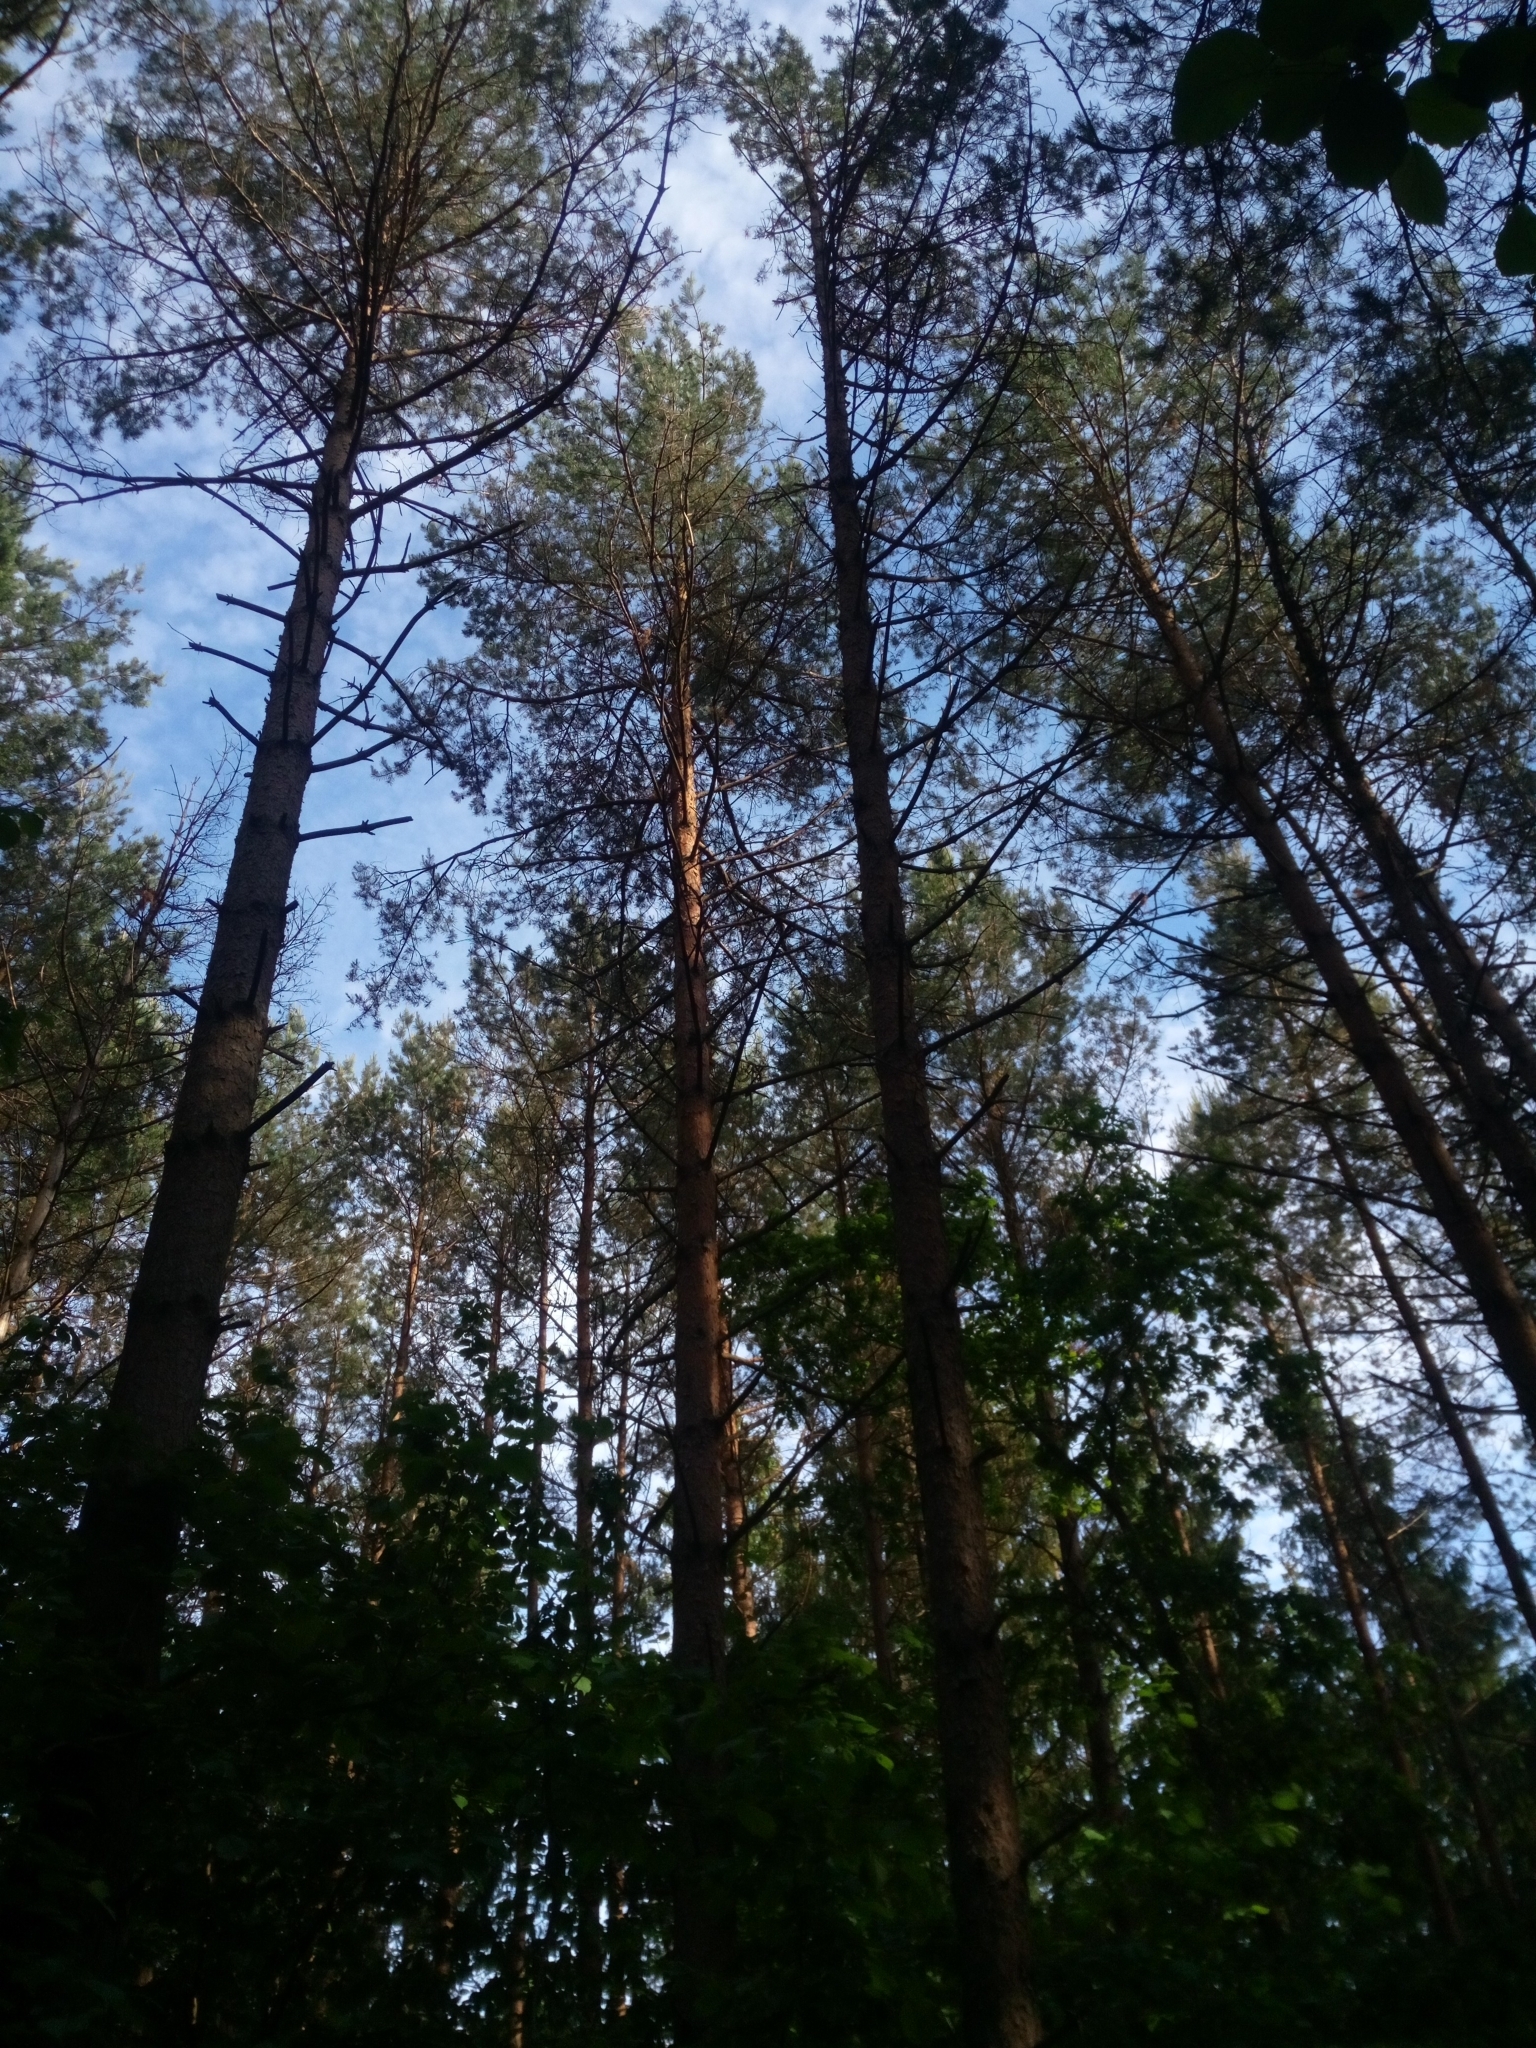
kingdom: Plantae
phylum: Tracheophyta
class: Pinopsida
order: Pinales
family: Pinaceae
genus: Pinus
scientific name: Pinus sylvestris
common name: Scots pine
